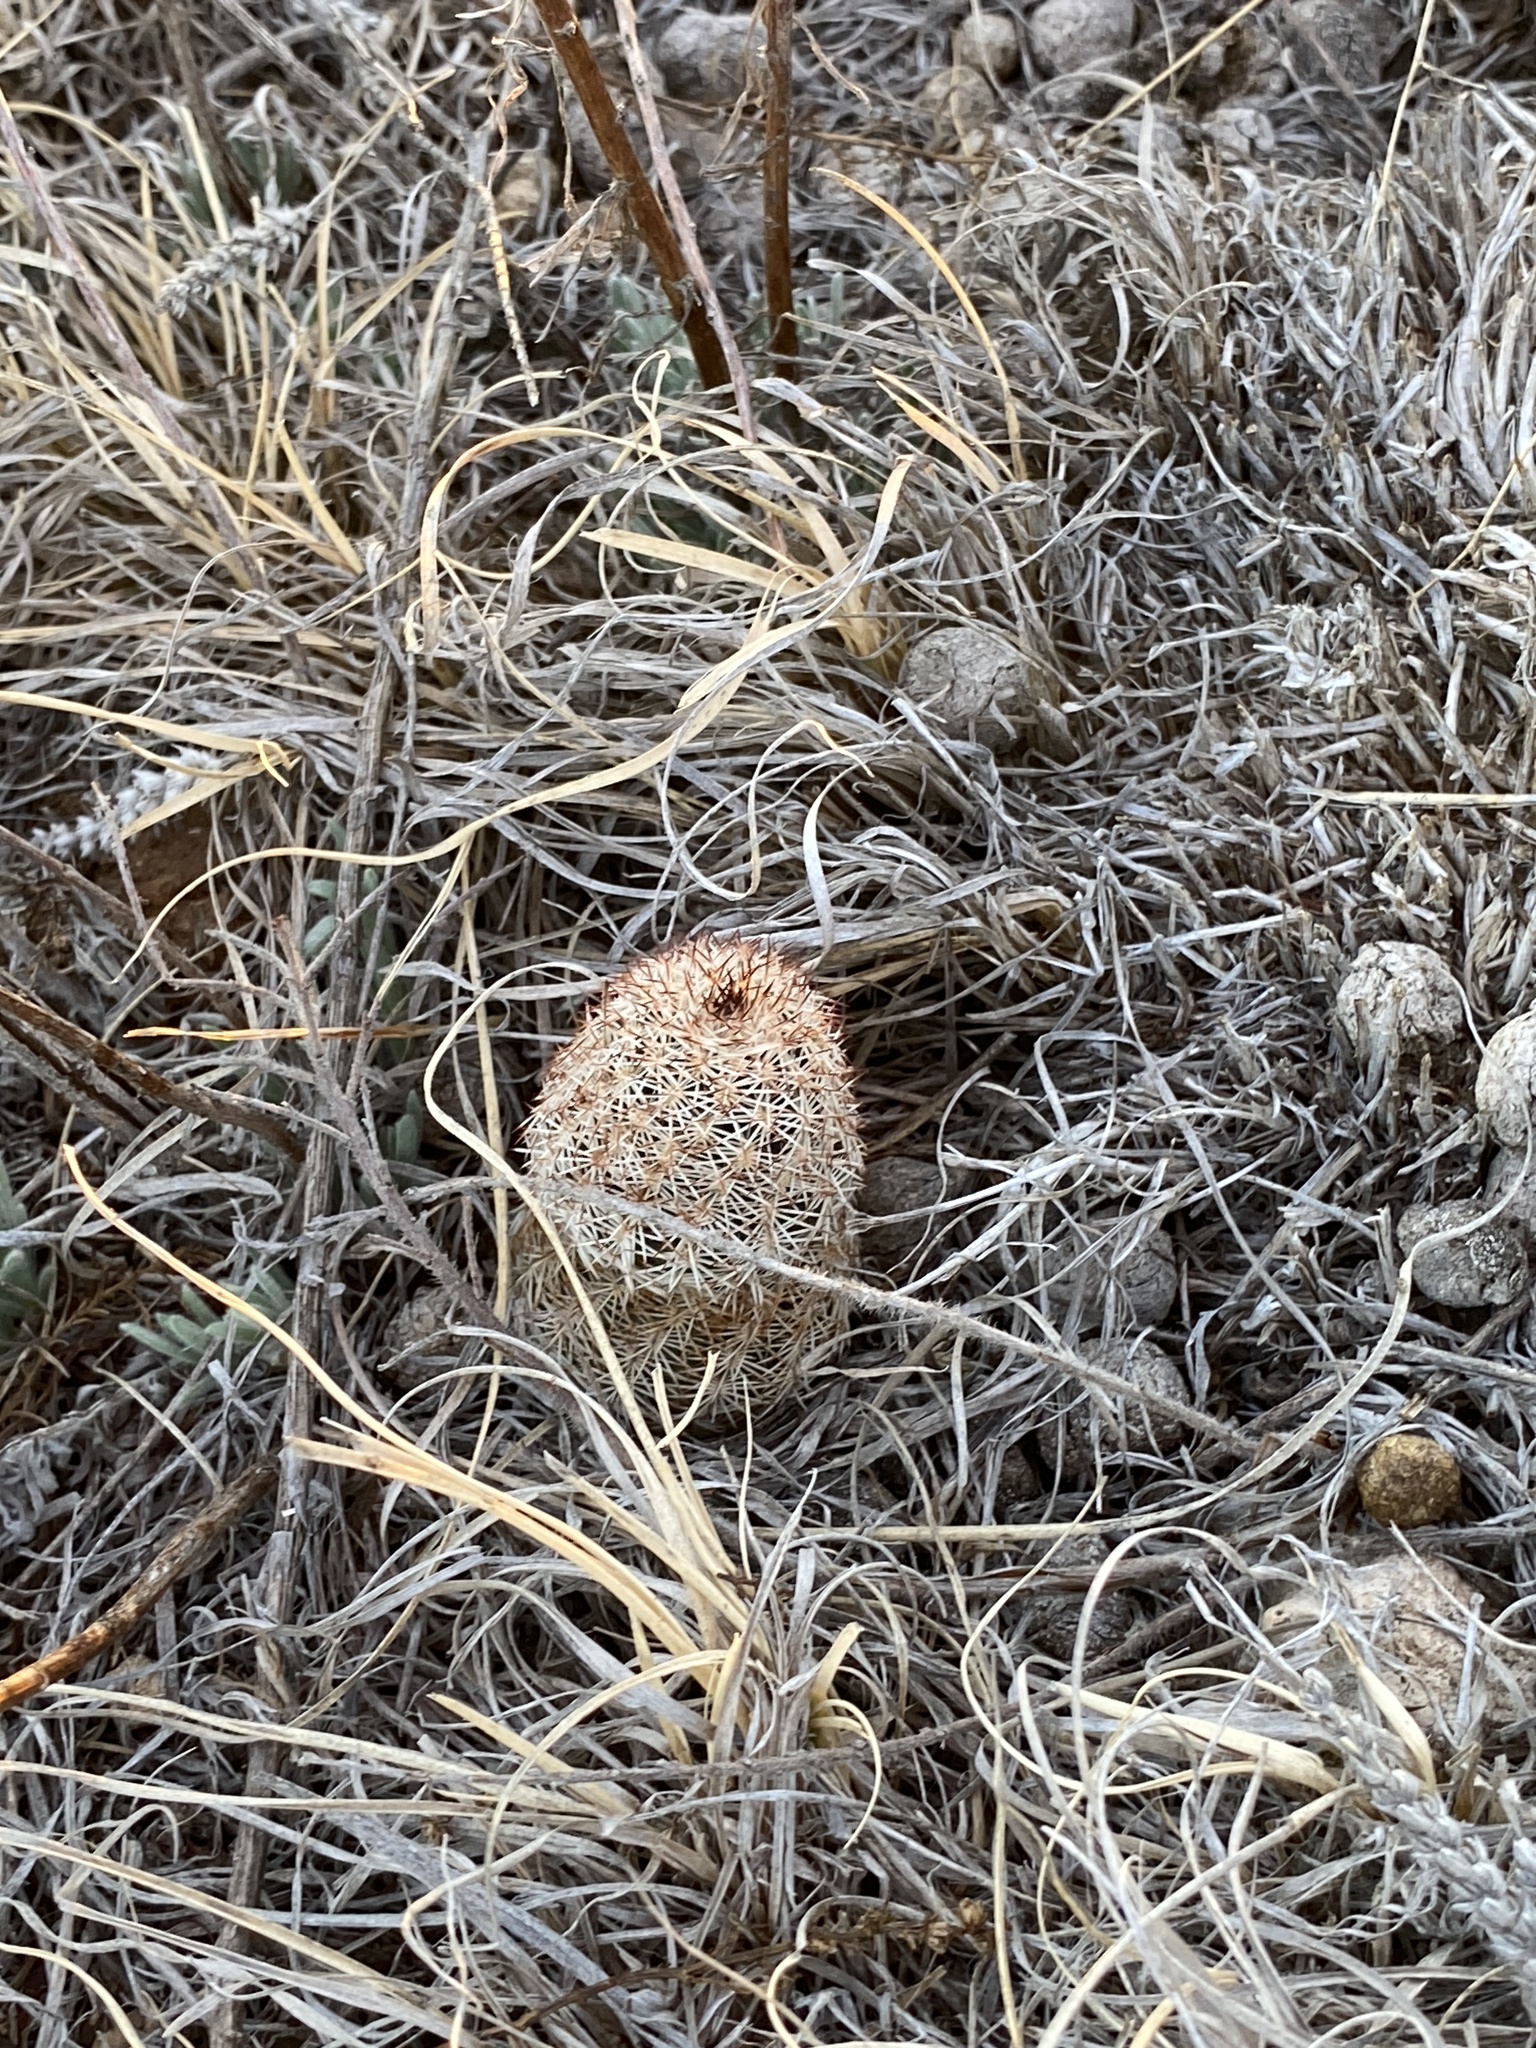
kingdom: Plantae
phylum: Tracheophyta
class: Magnoliopsida
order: Caryophyllales
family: Cactaceae
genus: Echinocereus
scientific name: Echinocereus reichenbachii
